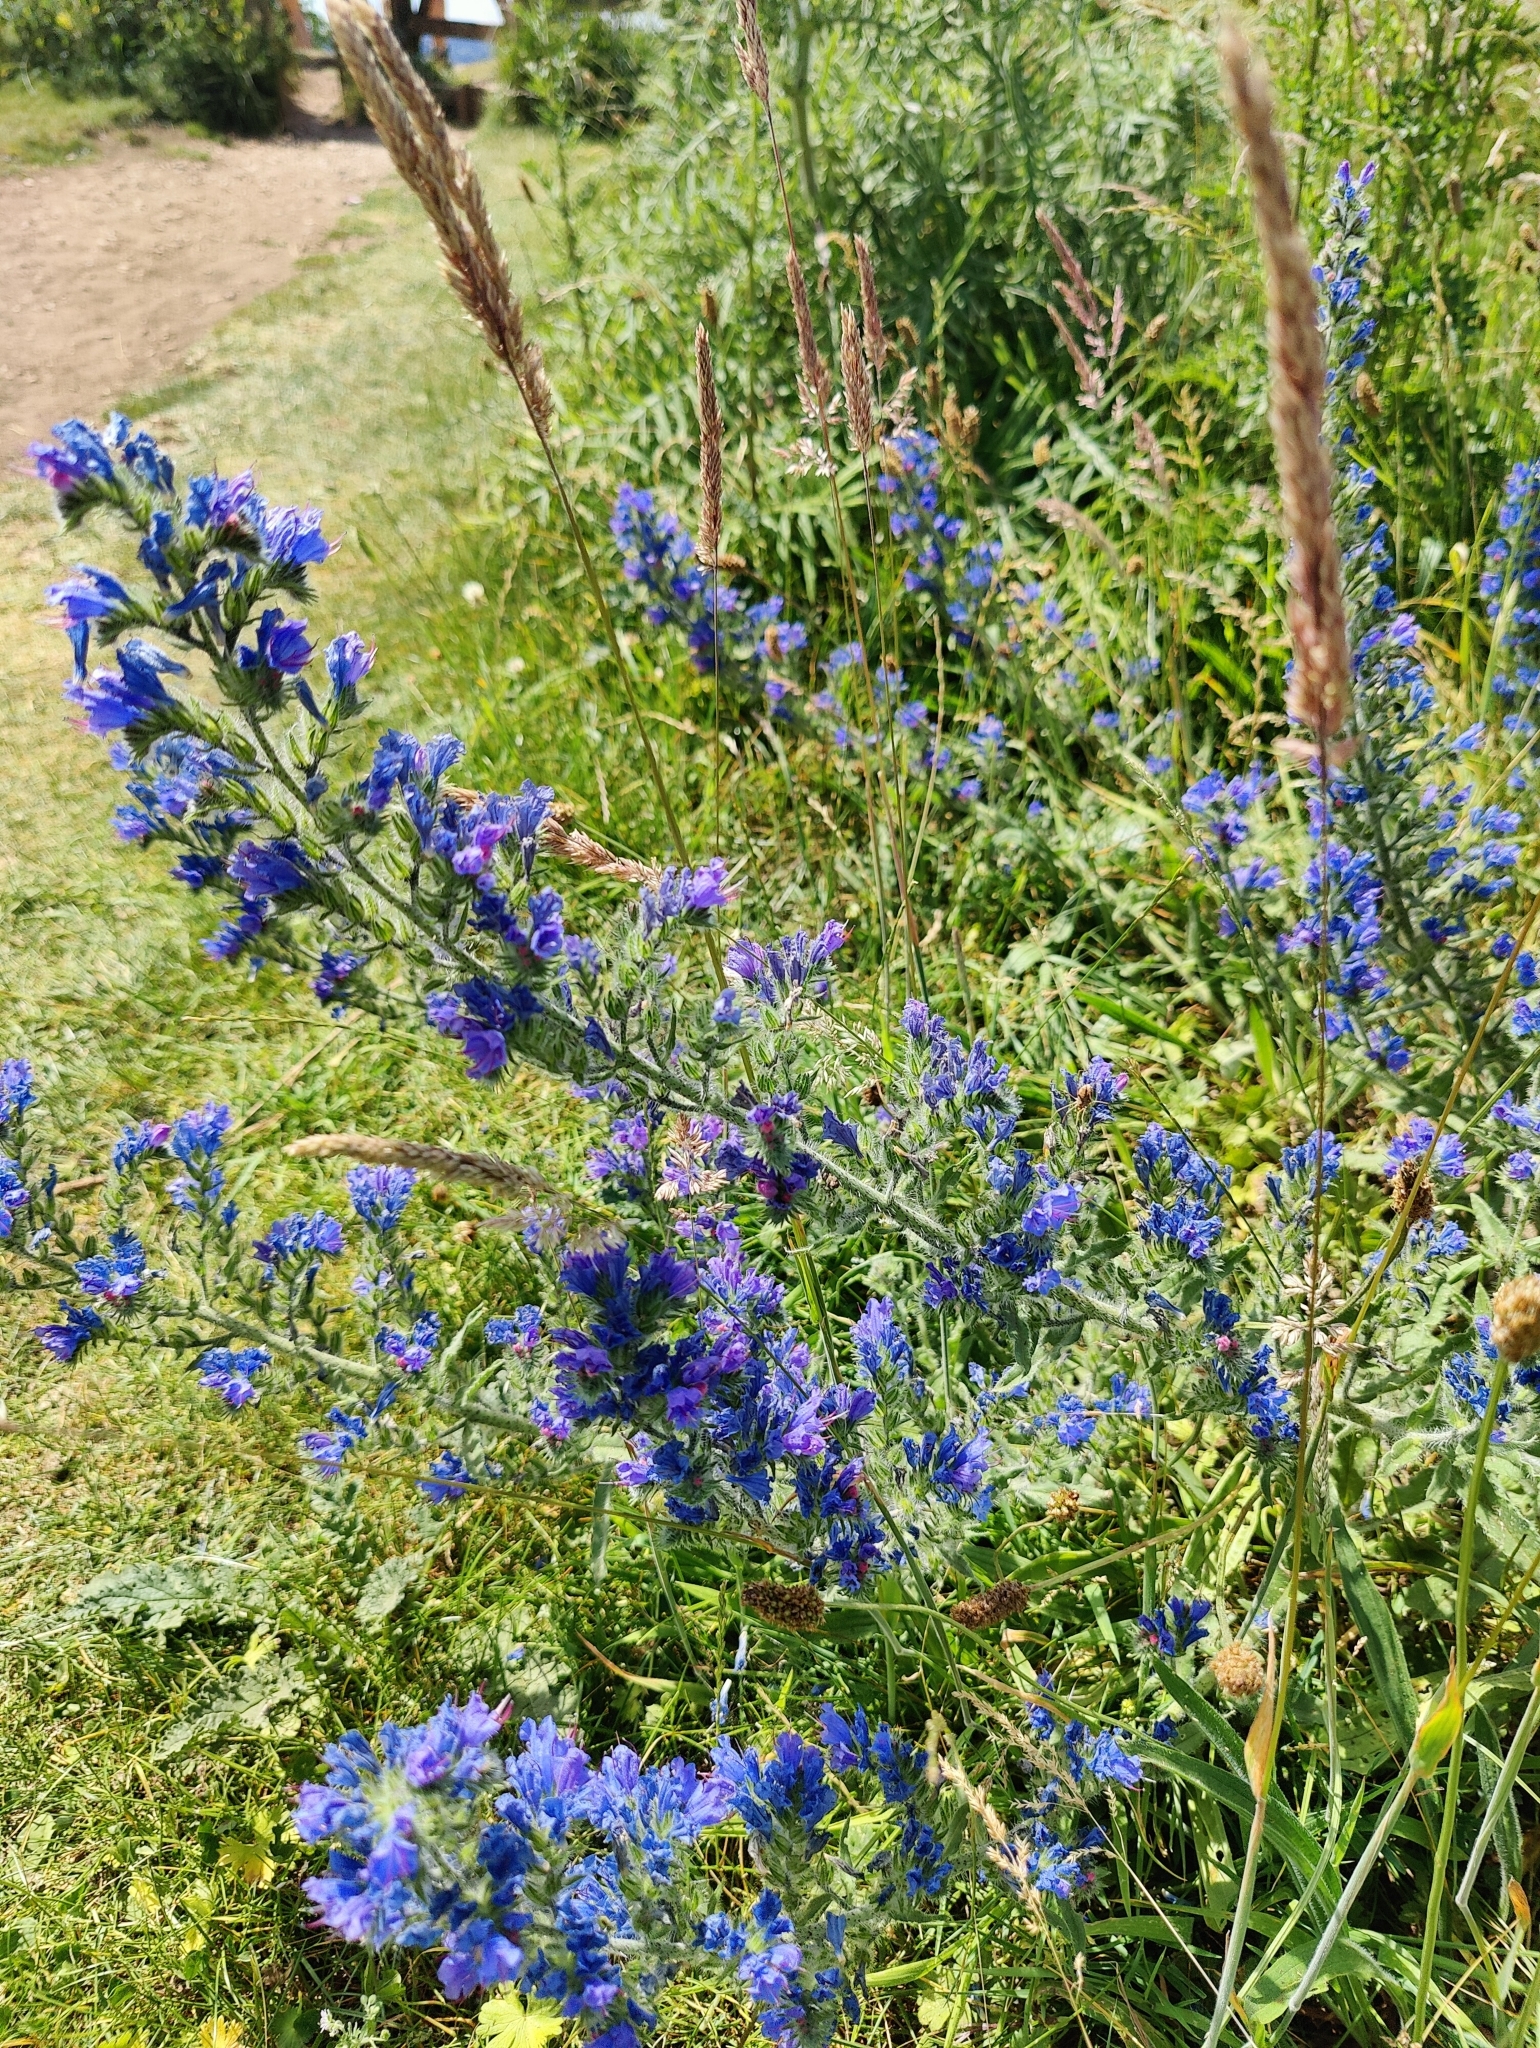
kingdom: Plantae
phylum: Tracheophyta
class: Magnoliopsida
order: Boraginales
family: Boraginaceae
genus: Echium
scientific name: Echium vulgare
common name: Common viper's bugloss
